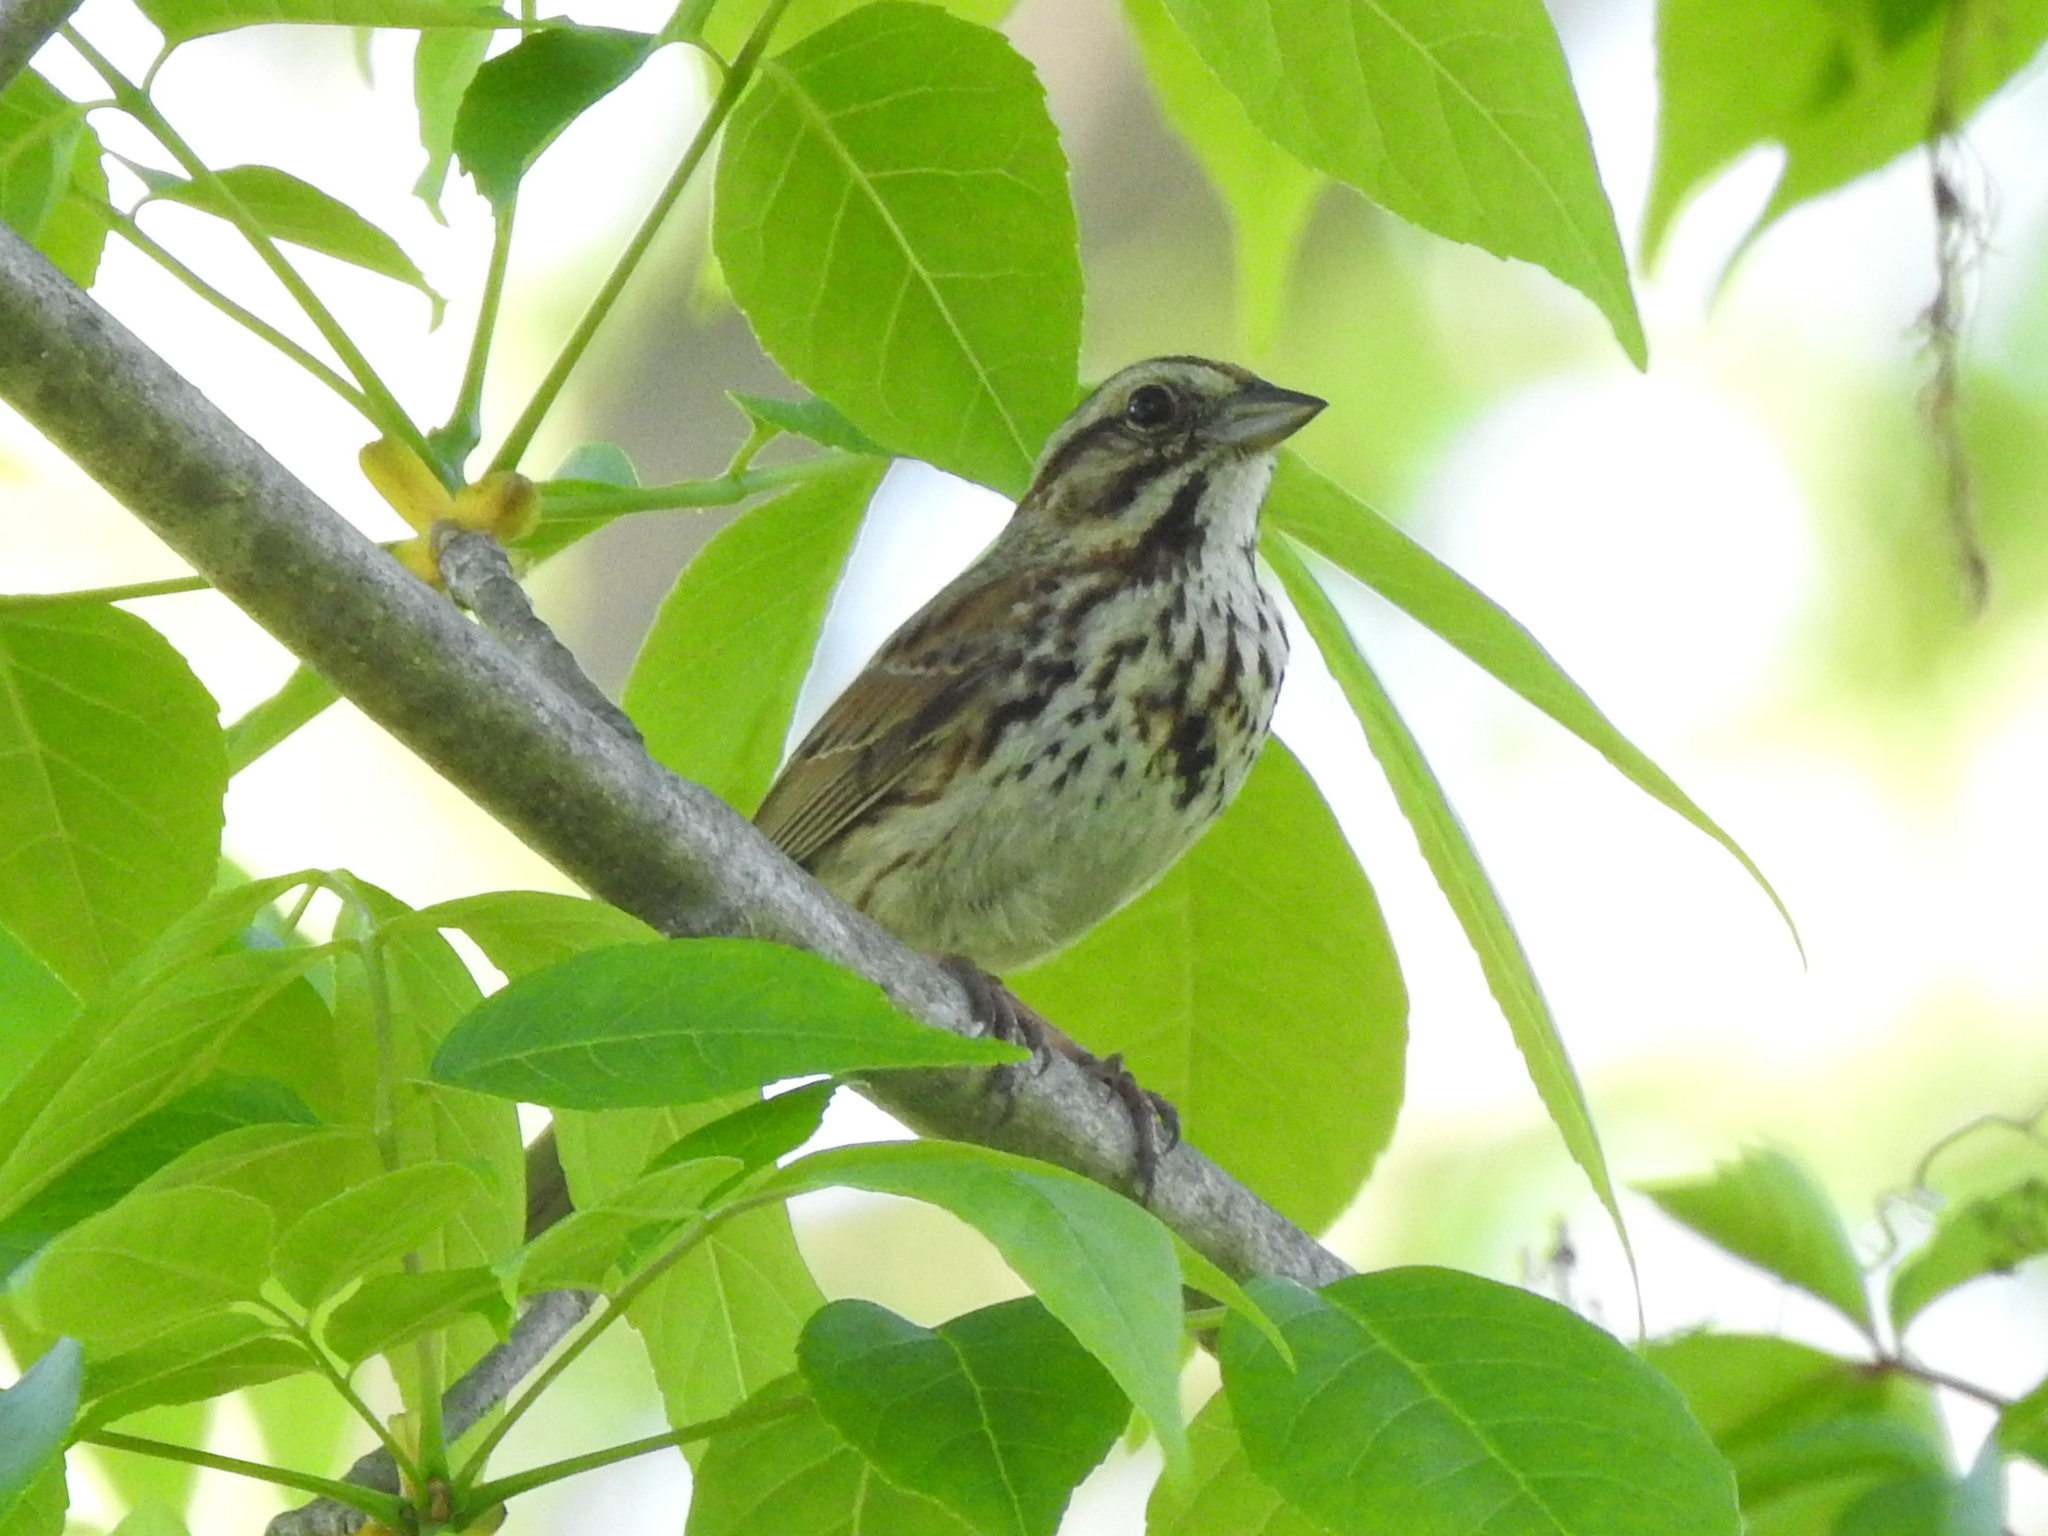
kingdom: Animalia
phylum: Chordata
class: Aves
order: Passeriformes
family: Passerellidae
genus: Melospiza
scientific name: Melospiza melodia
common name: Song sparrow
